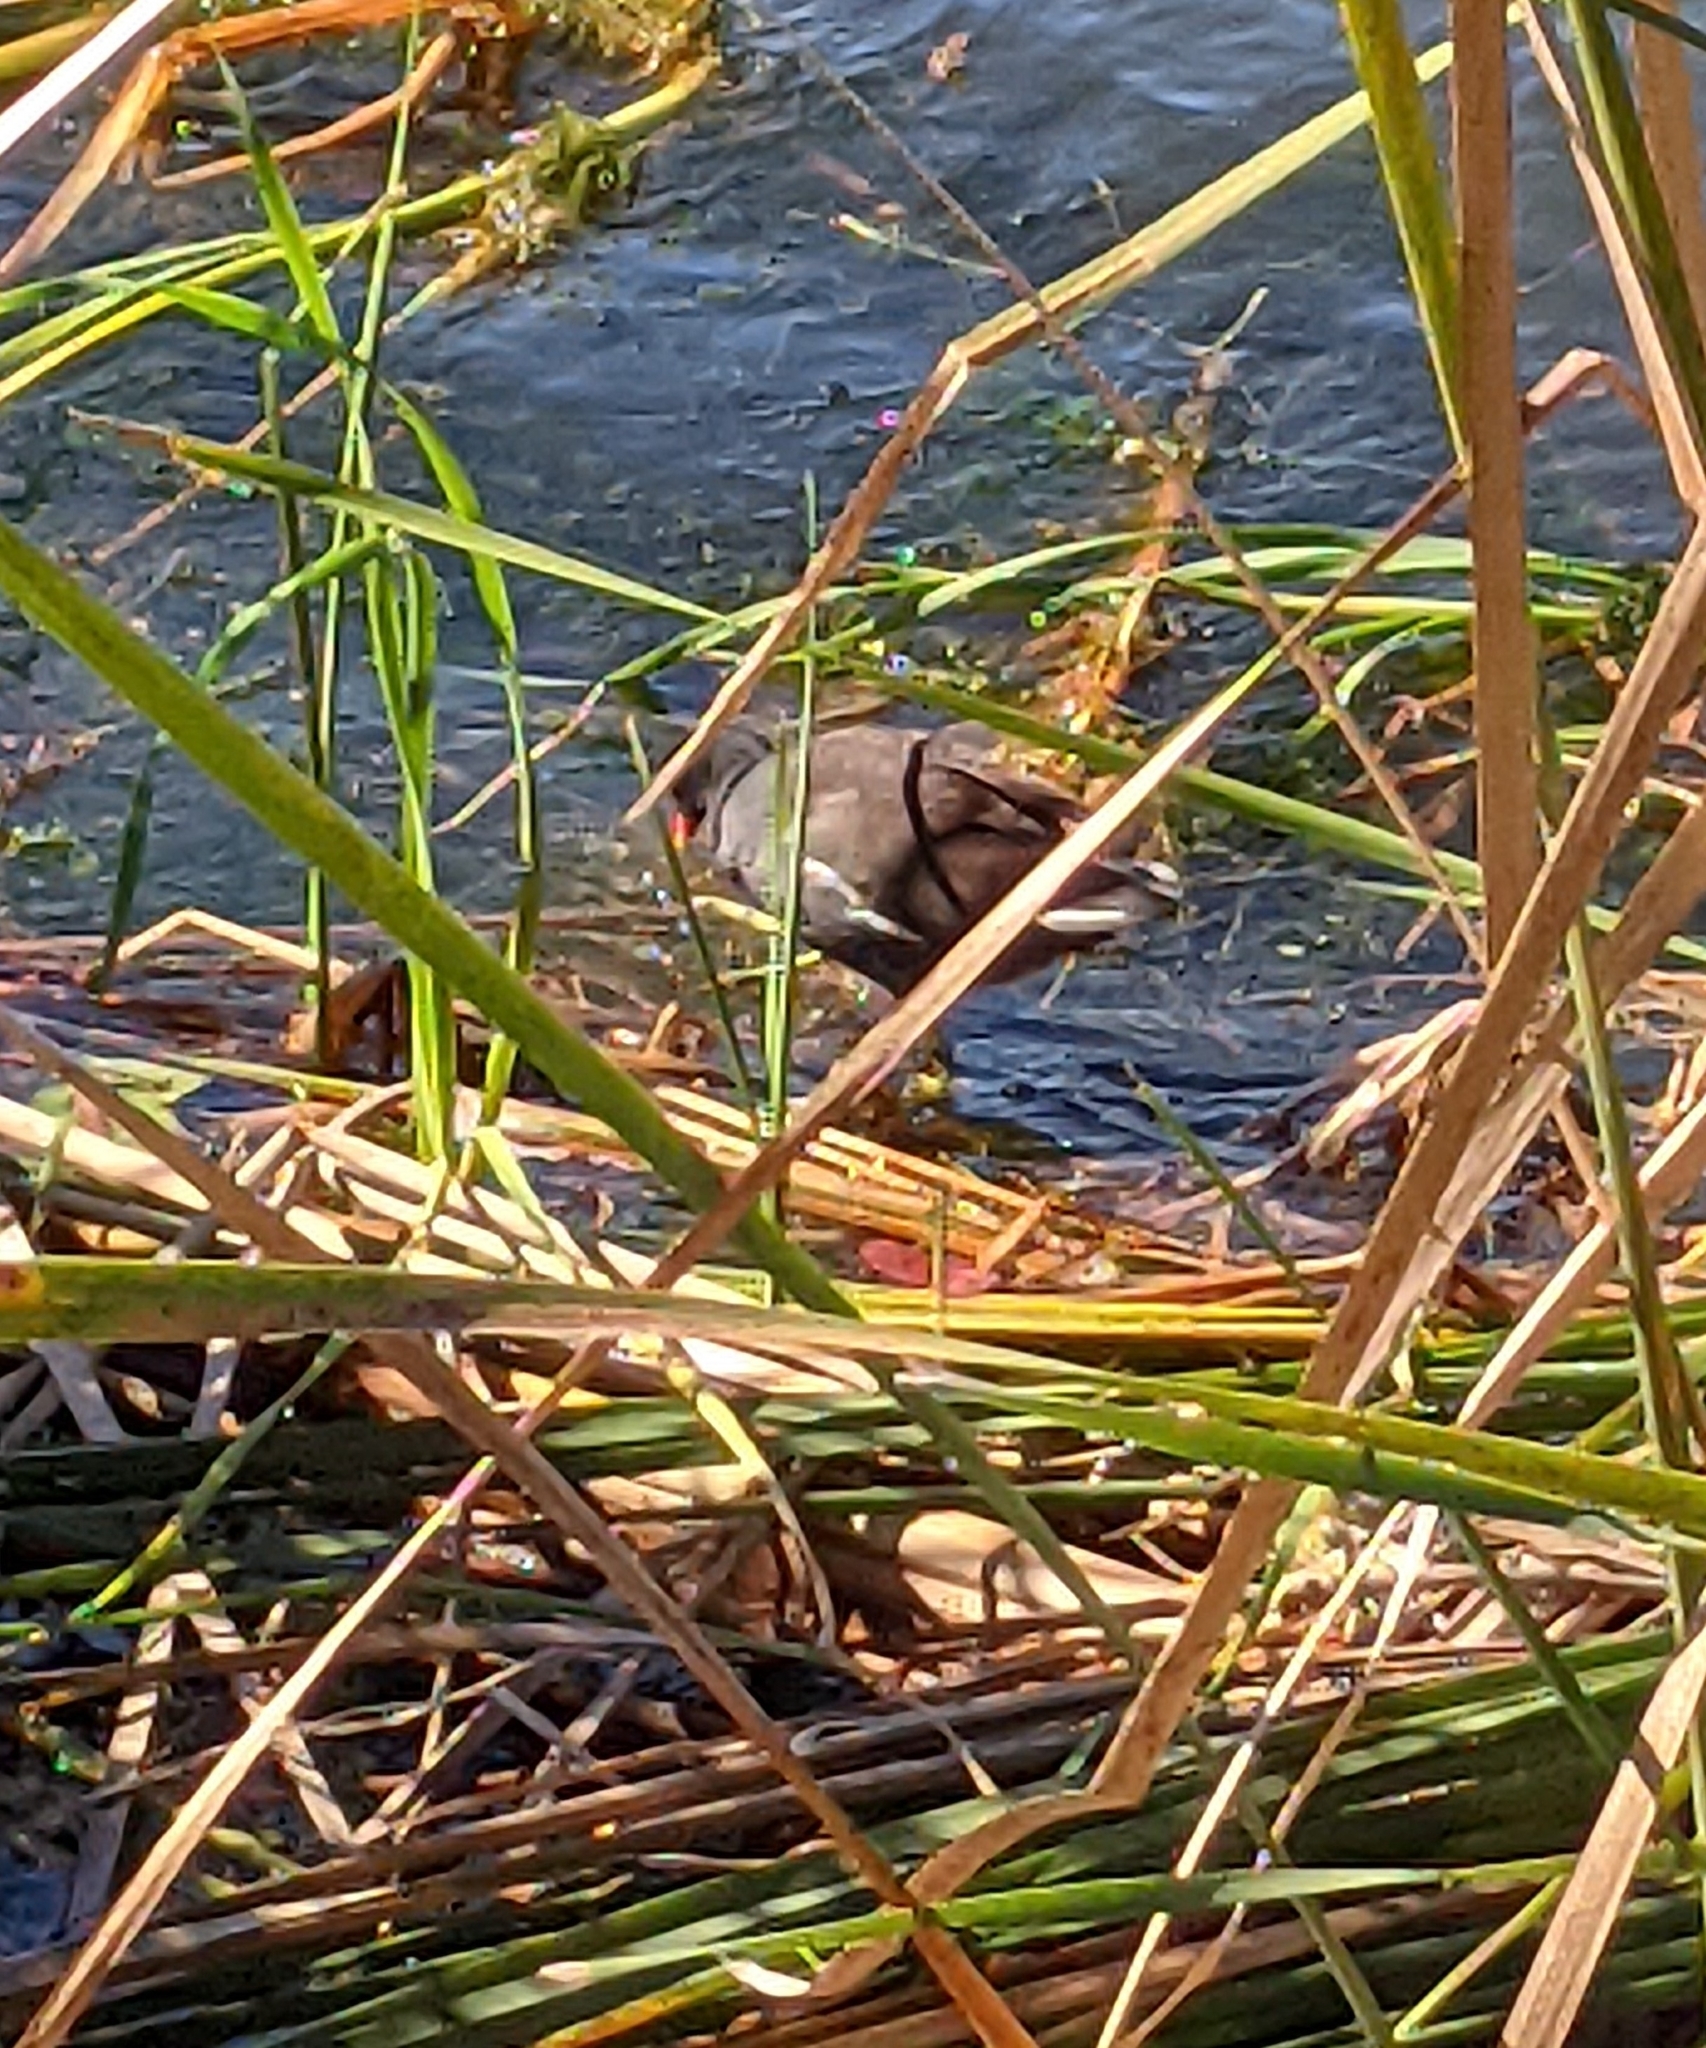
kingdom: Animalia
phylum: Chordata
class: Aves
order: Gruiformes
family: Rallidae
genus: Gallinula
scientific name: Gallinula chloropus
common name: Common moorhen
